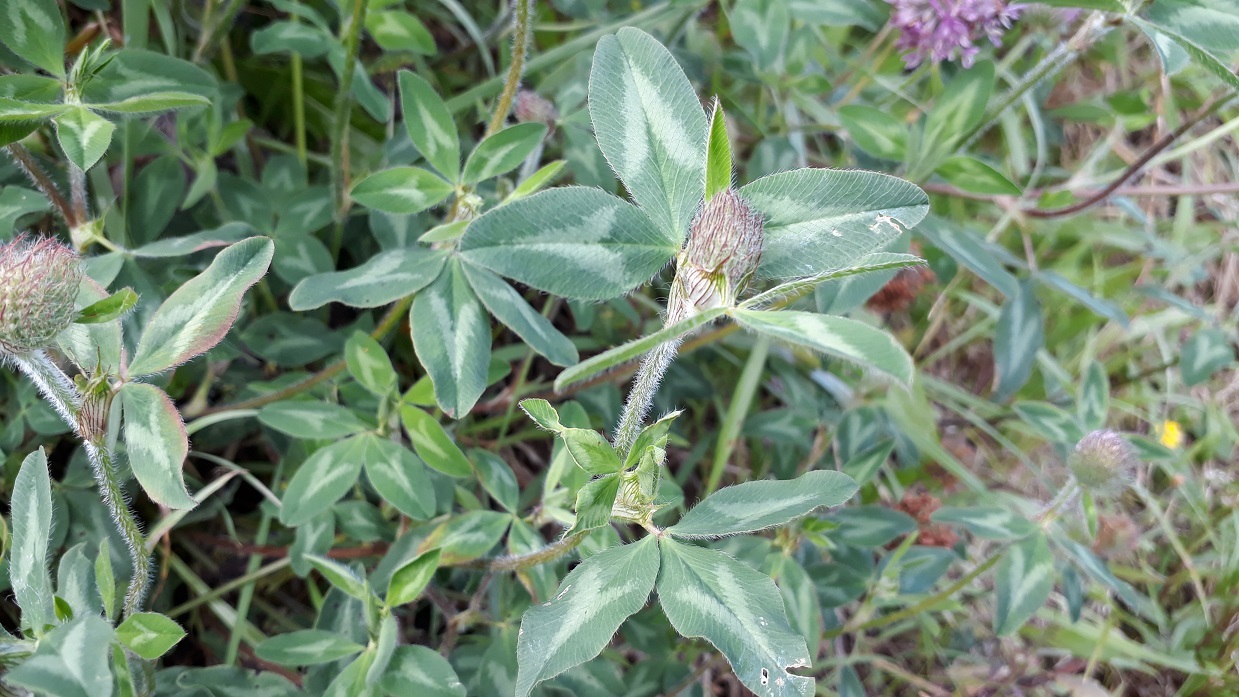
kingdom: Plantae
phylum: Tracheophyta
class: Magnoliopsida
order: Fabales
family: Fabaceae
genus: Trifolium
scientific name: Trifolium pratense
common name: Red clover
